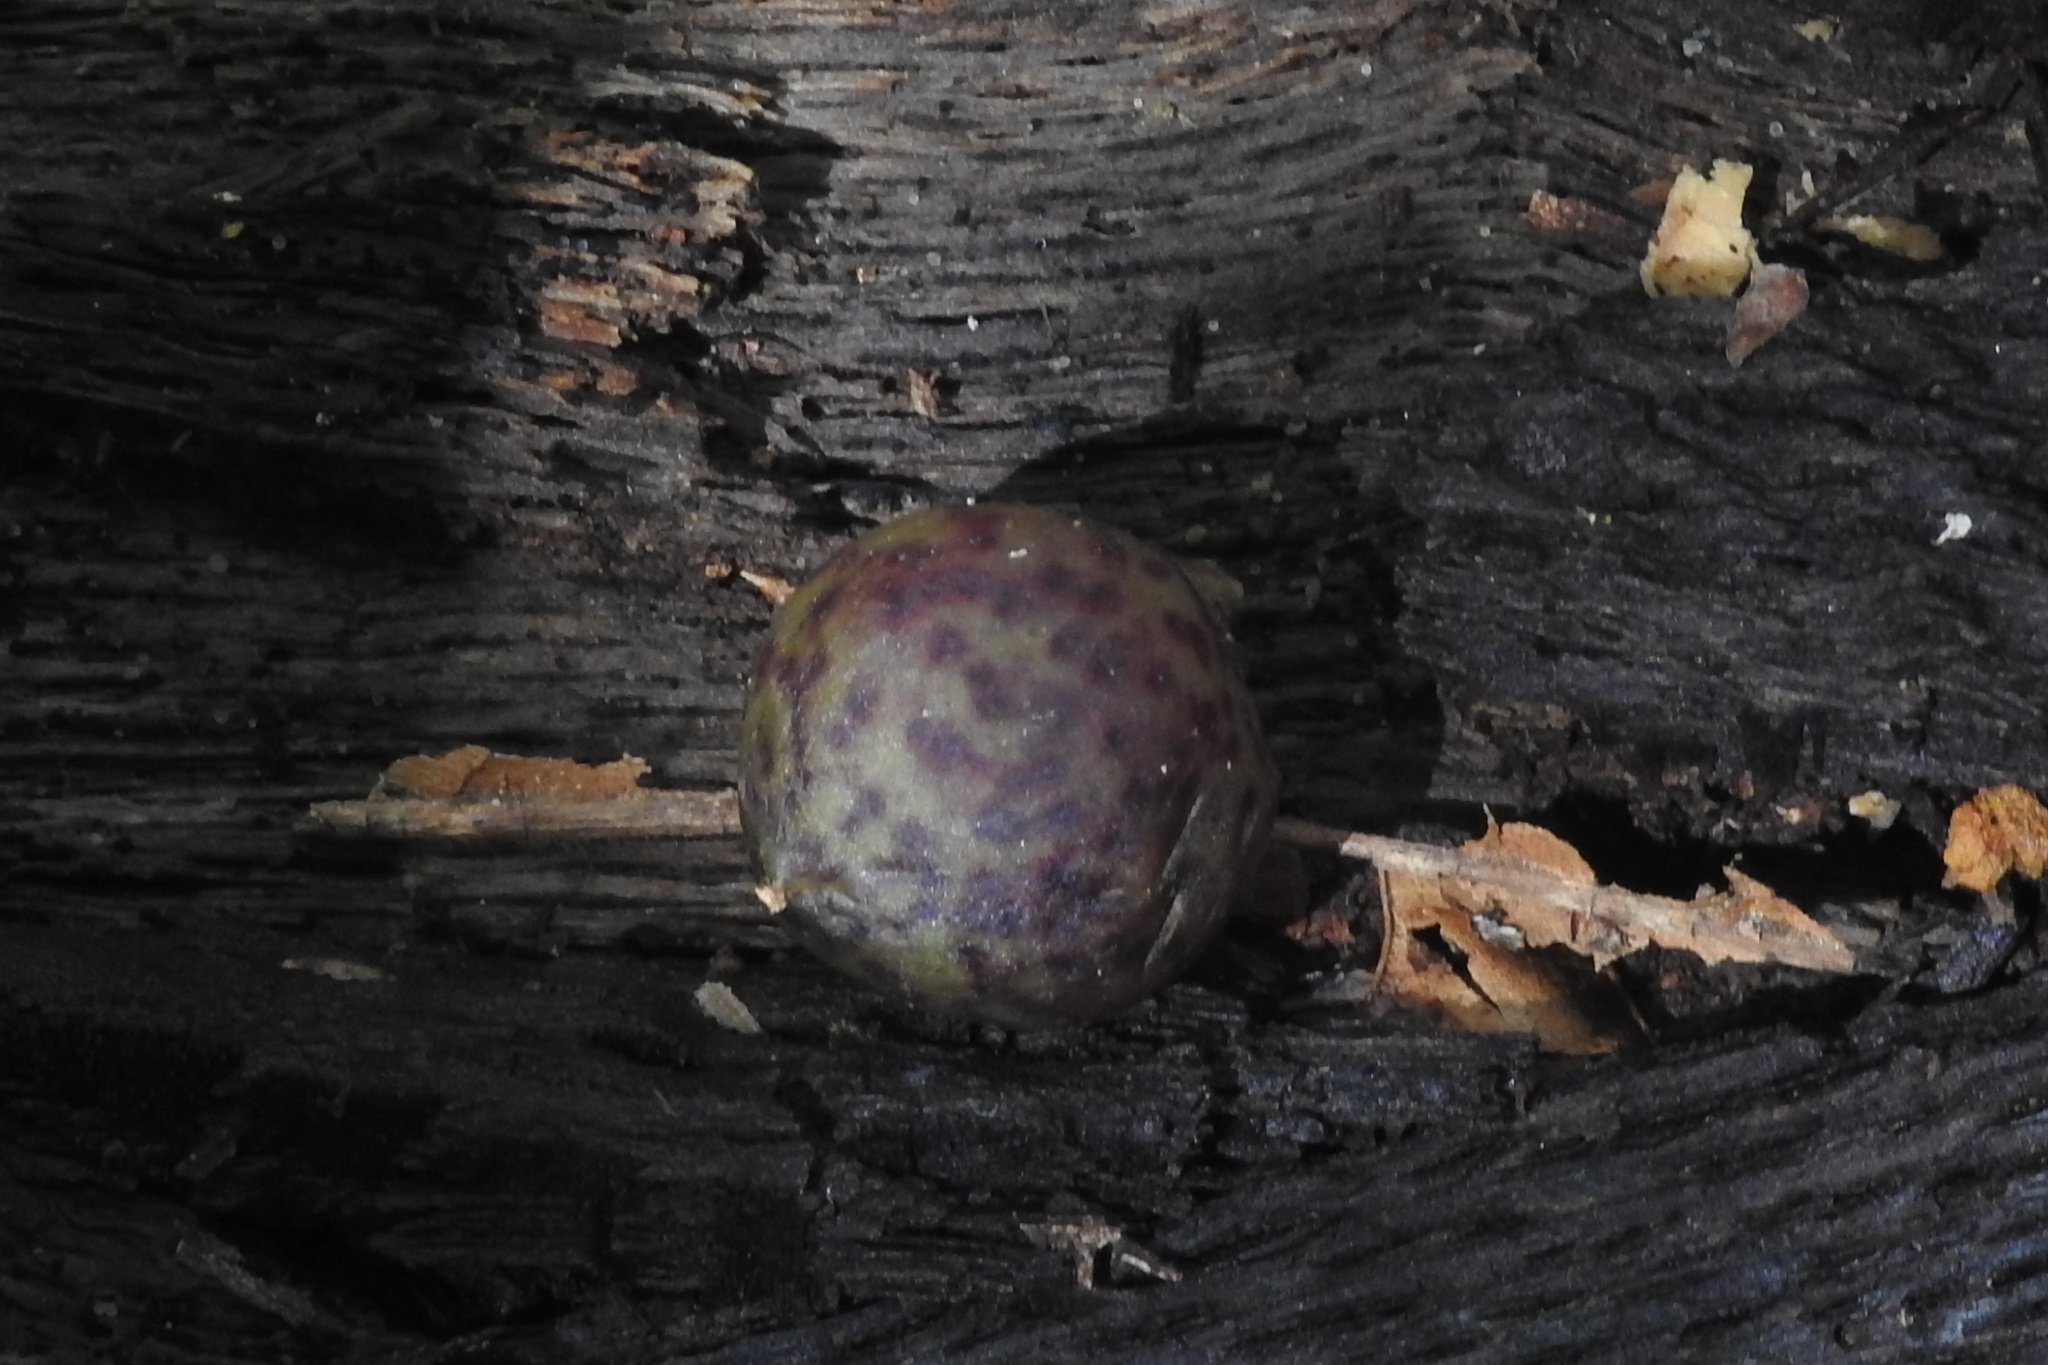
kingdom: Animalia
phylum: Arthropoda
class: Insecta
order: Hymenoptera
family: Cynipidae
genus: Amphibolips
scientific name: Amphibolips
